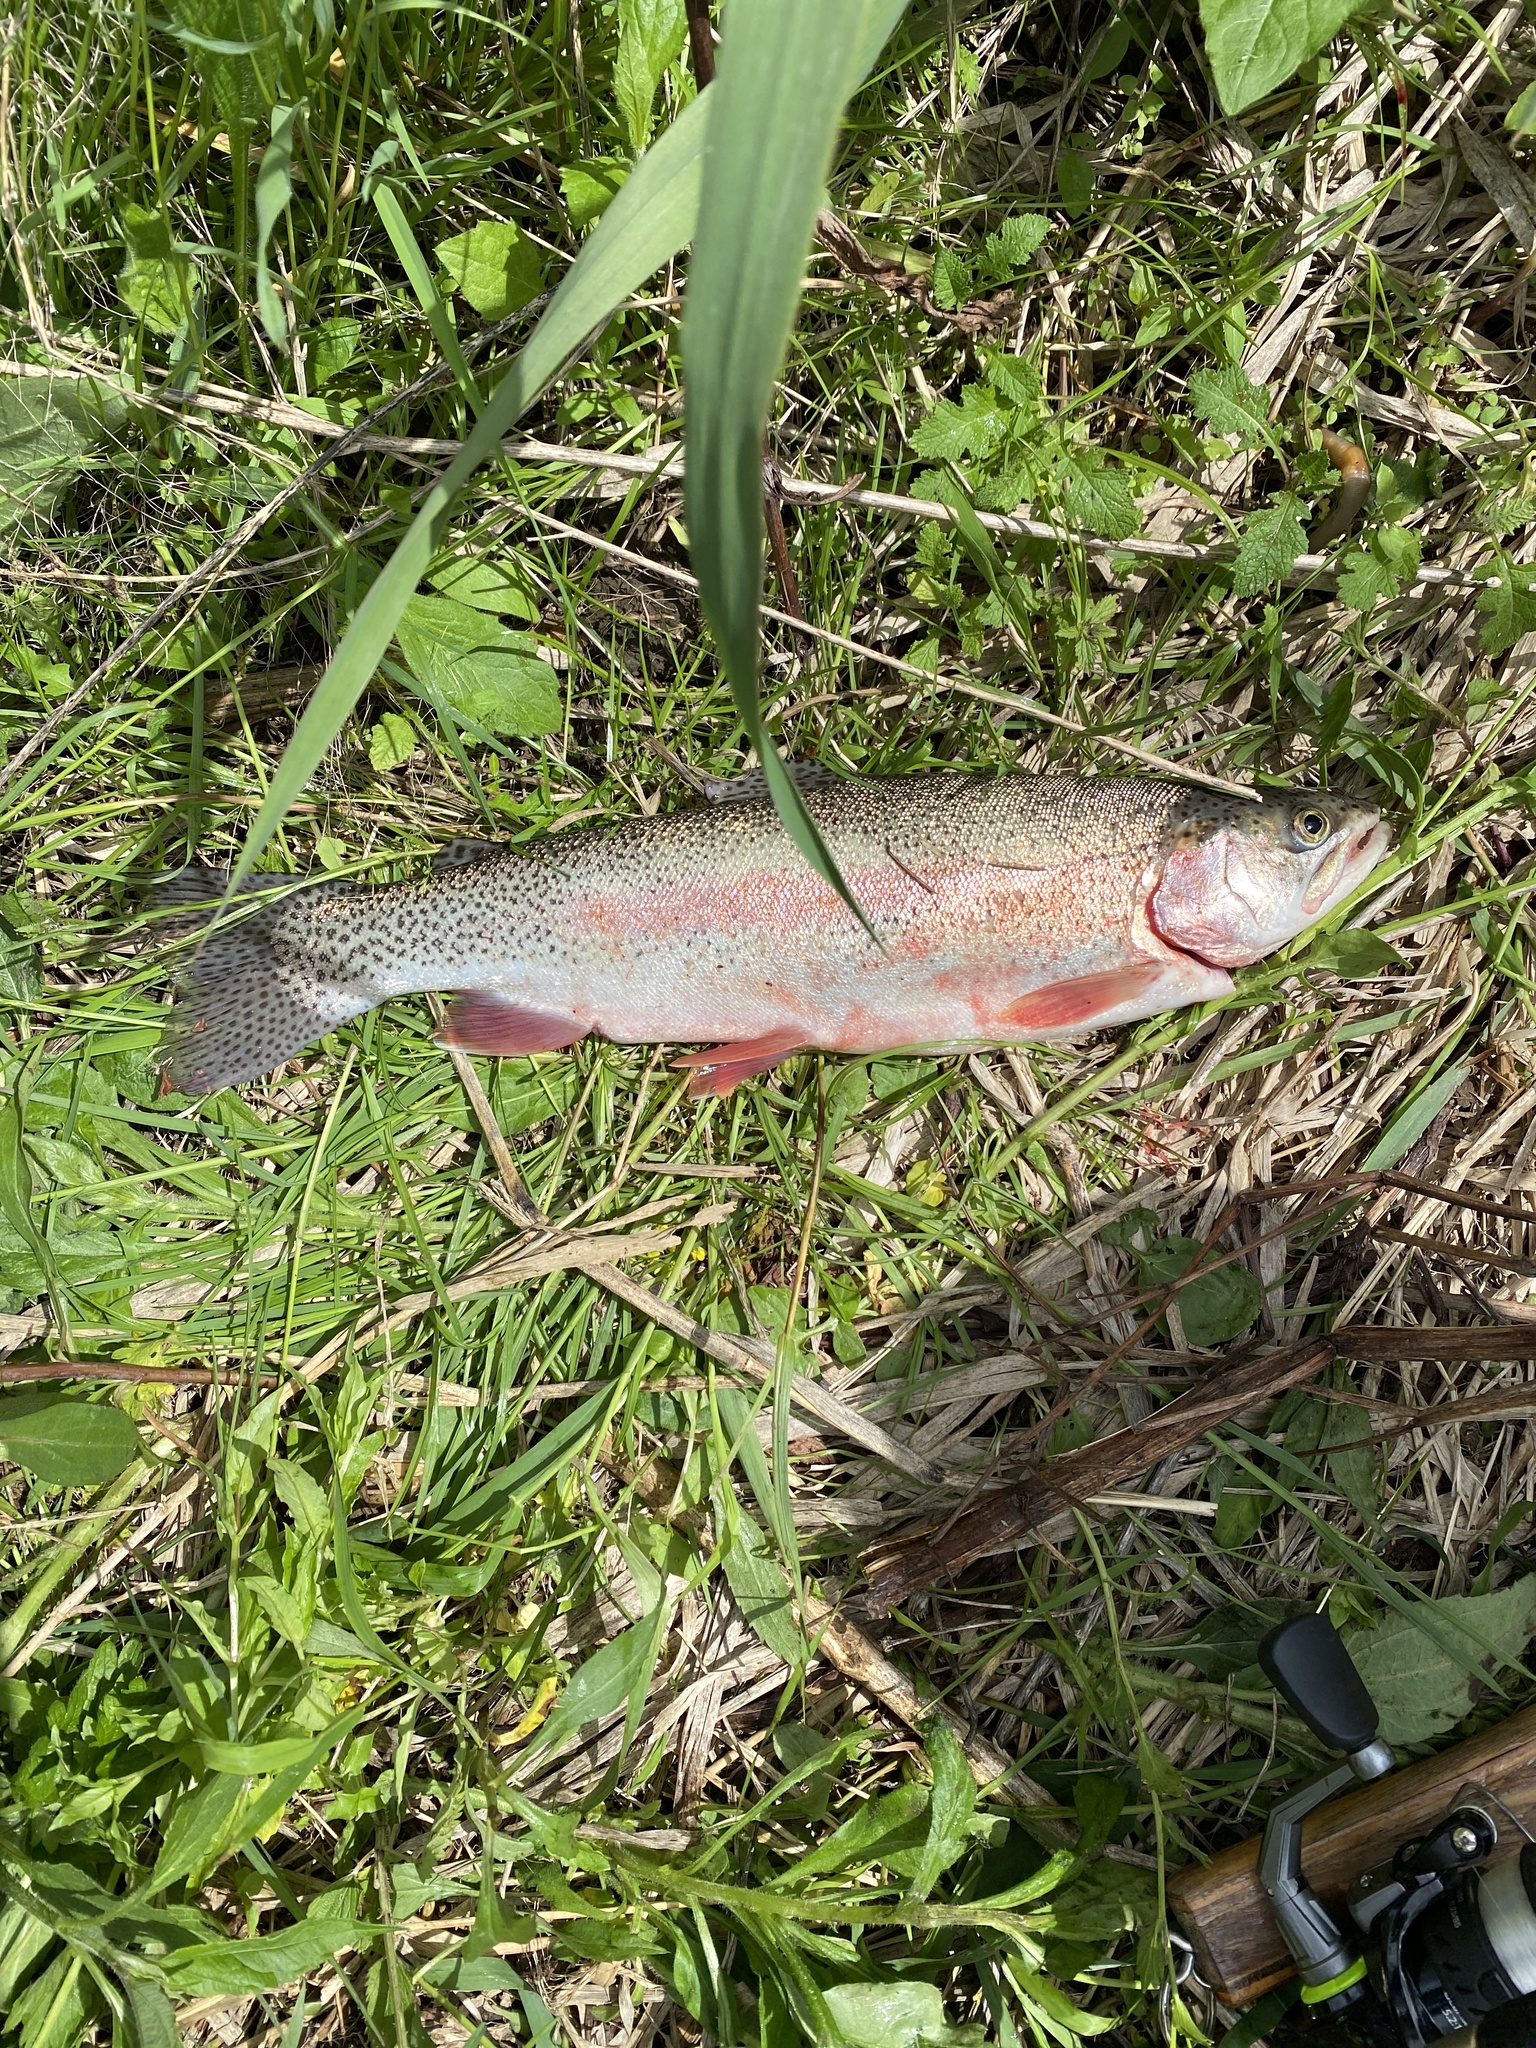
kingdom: Animalia
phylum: Chordata
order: Salmoniformes
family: Salmonidae
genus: Oncorhynchus
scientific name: Oncorhynchus mykiss
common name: Rainbow trout
